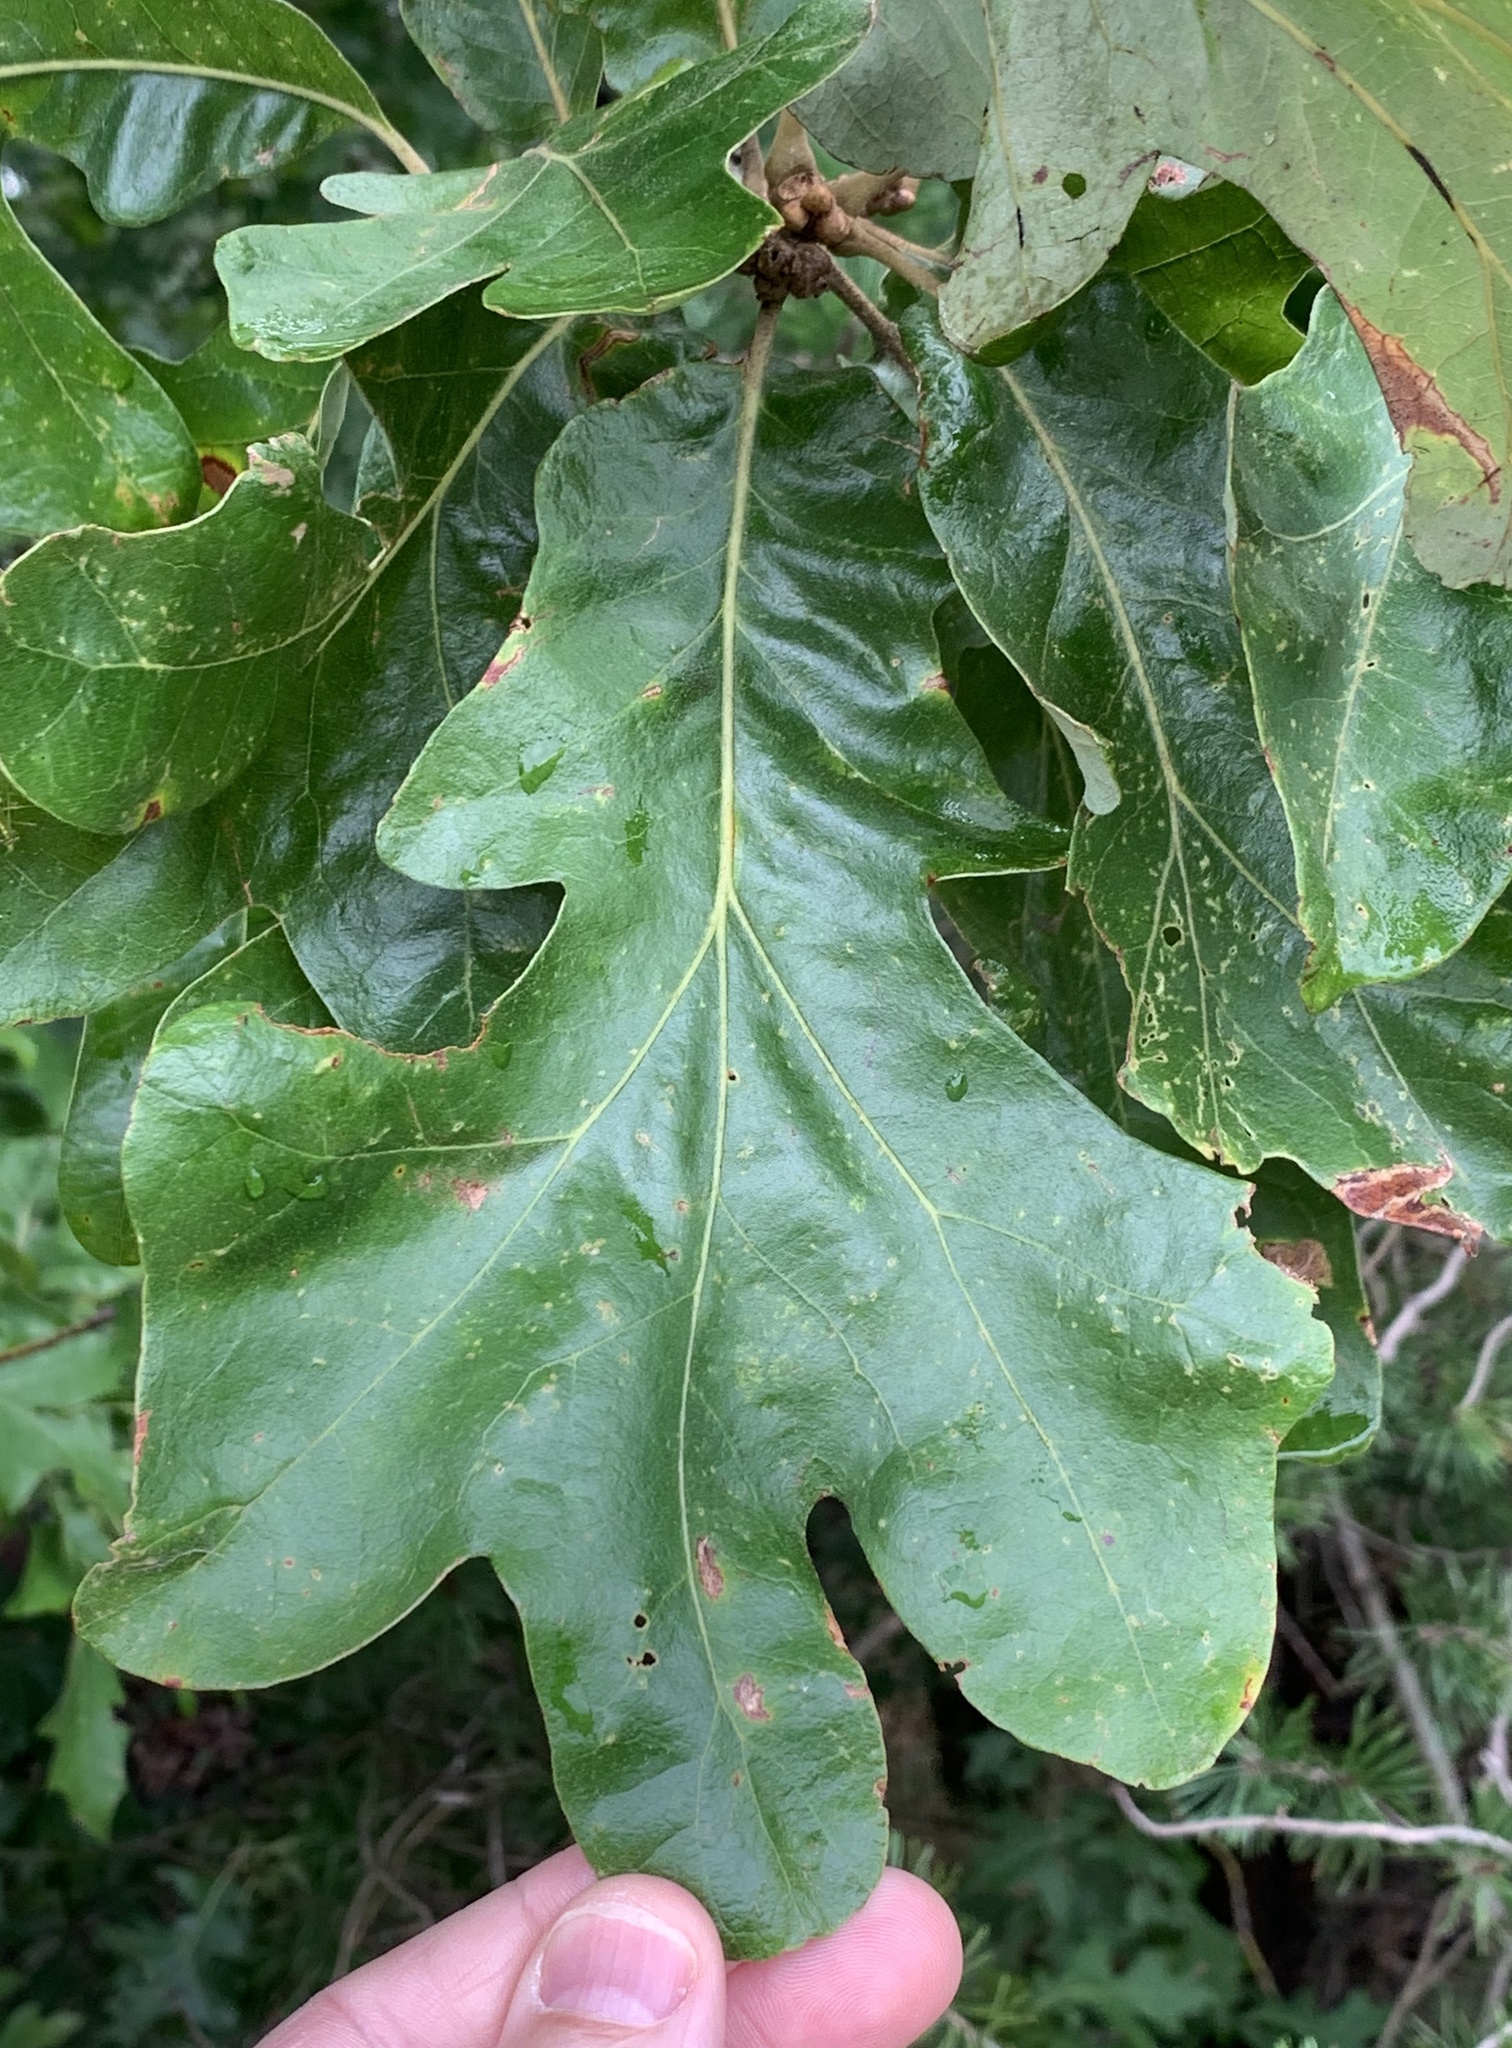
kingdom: Plantae
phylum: Tracheophyta
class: Magnoliopsida
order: Fagales
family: Fagaceae
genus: Quercus
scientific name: Quercus stellata
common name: Post oak
